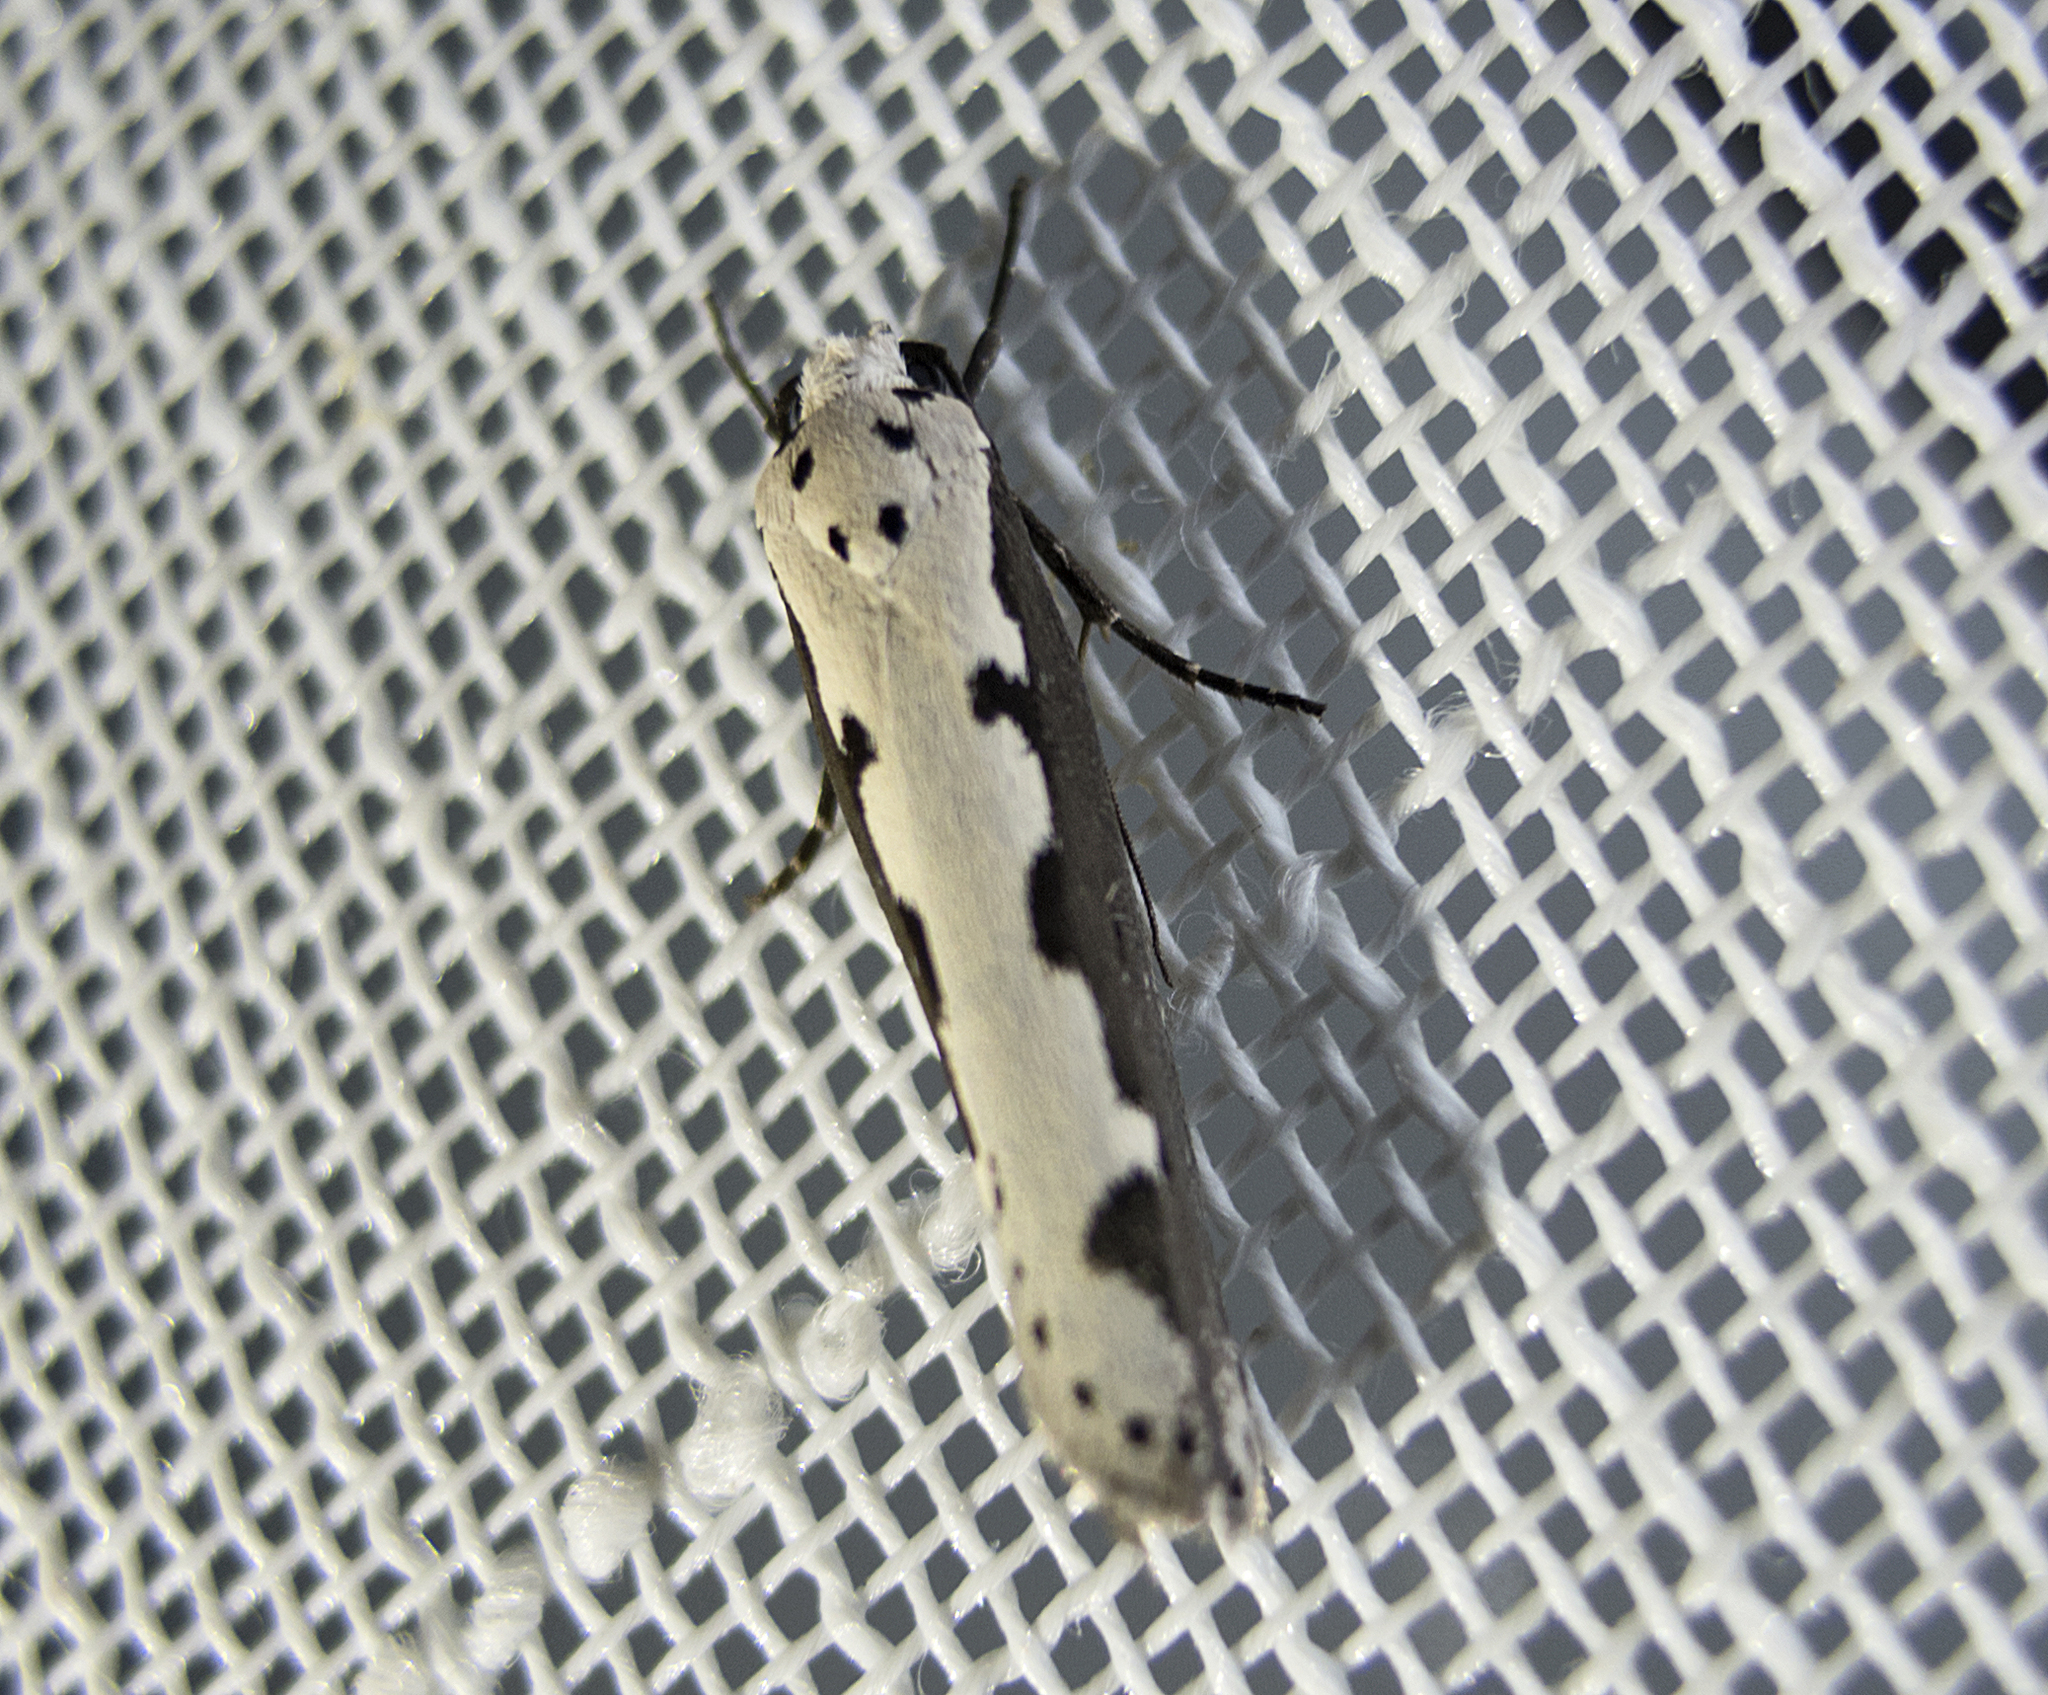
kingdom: Animalia
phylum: Arthropoda
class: Insecta
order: Lepidoptera
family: Ethmiidae
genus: Ethmia
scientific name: Ethmia bipunctella
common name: Bordered ermel
